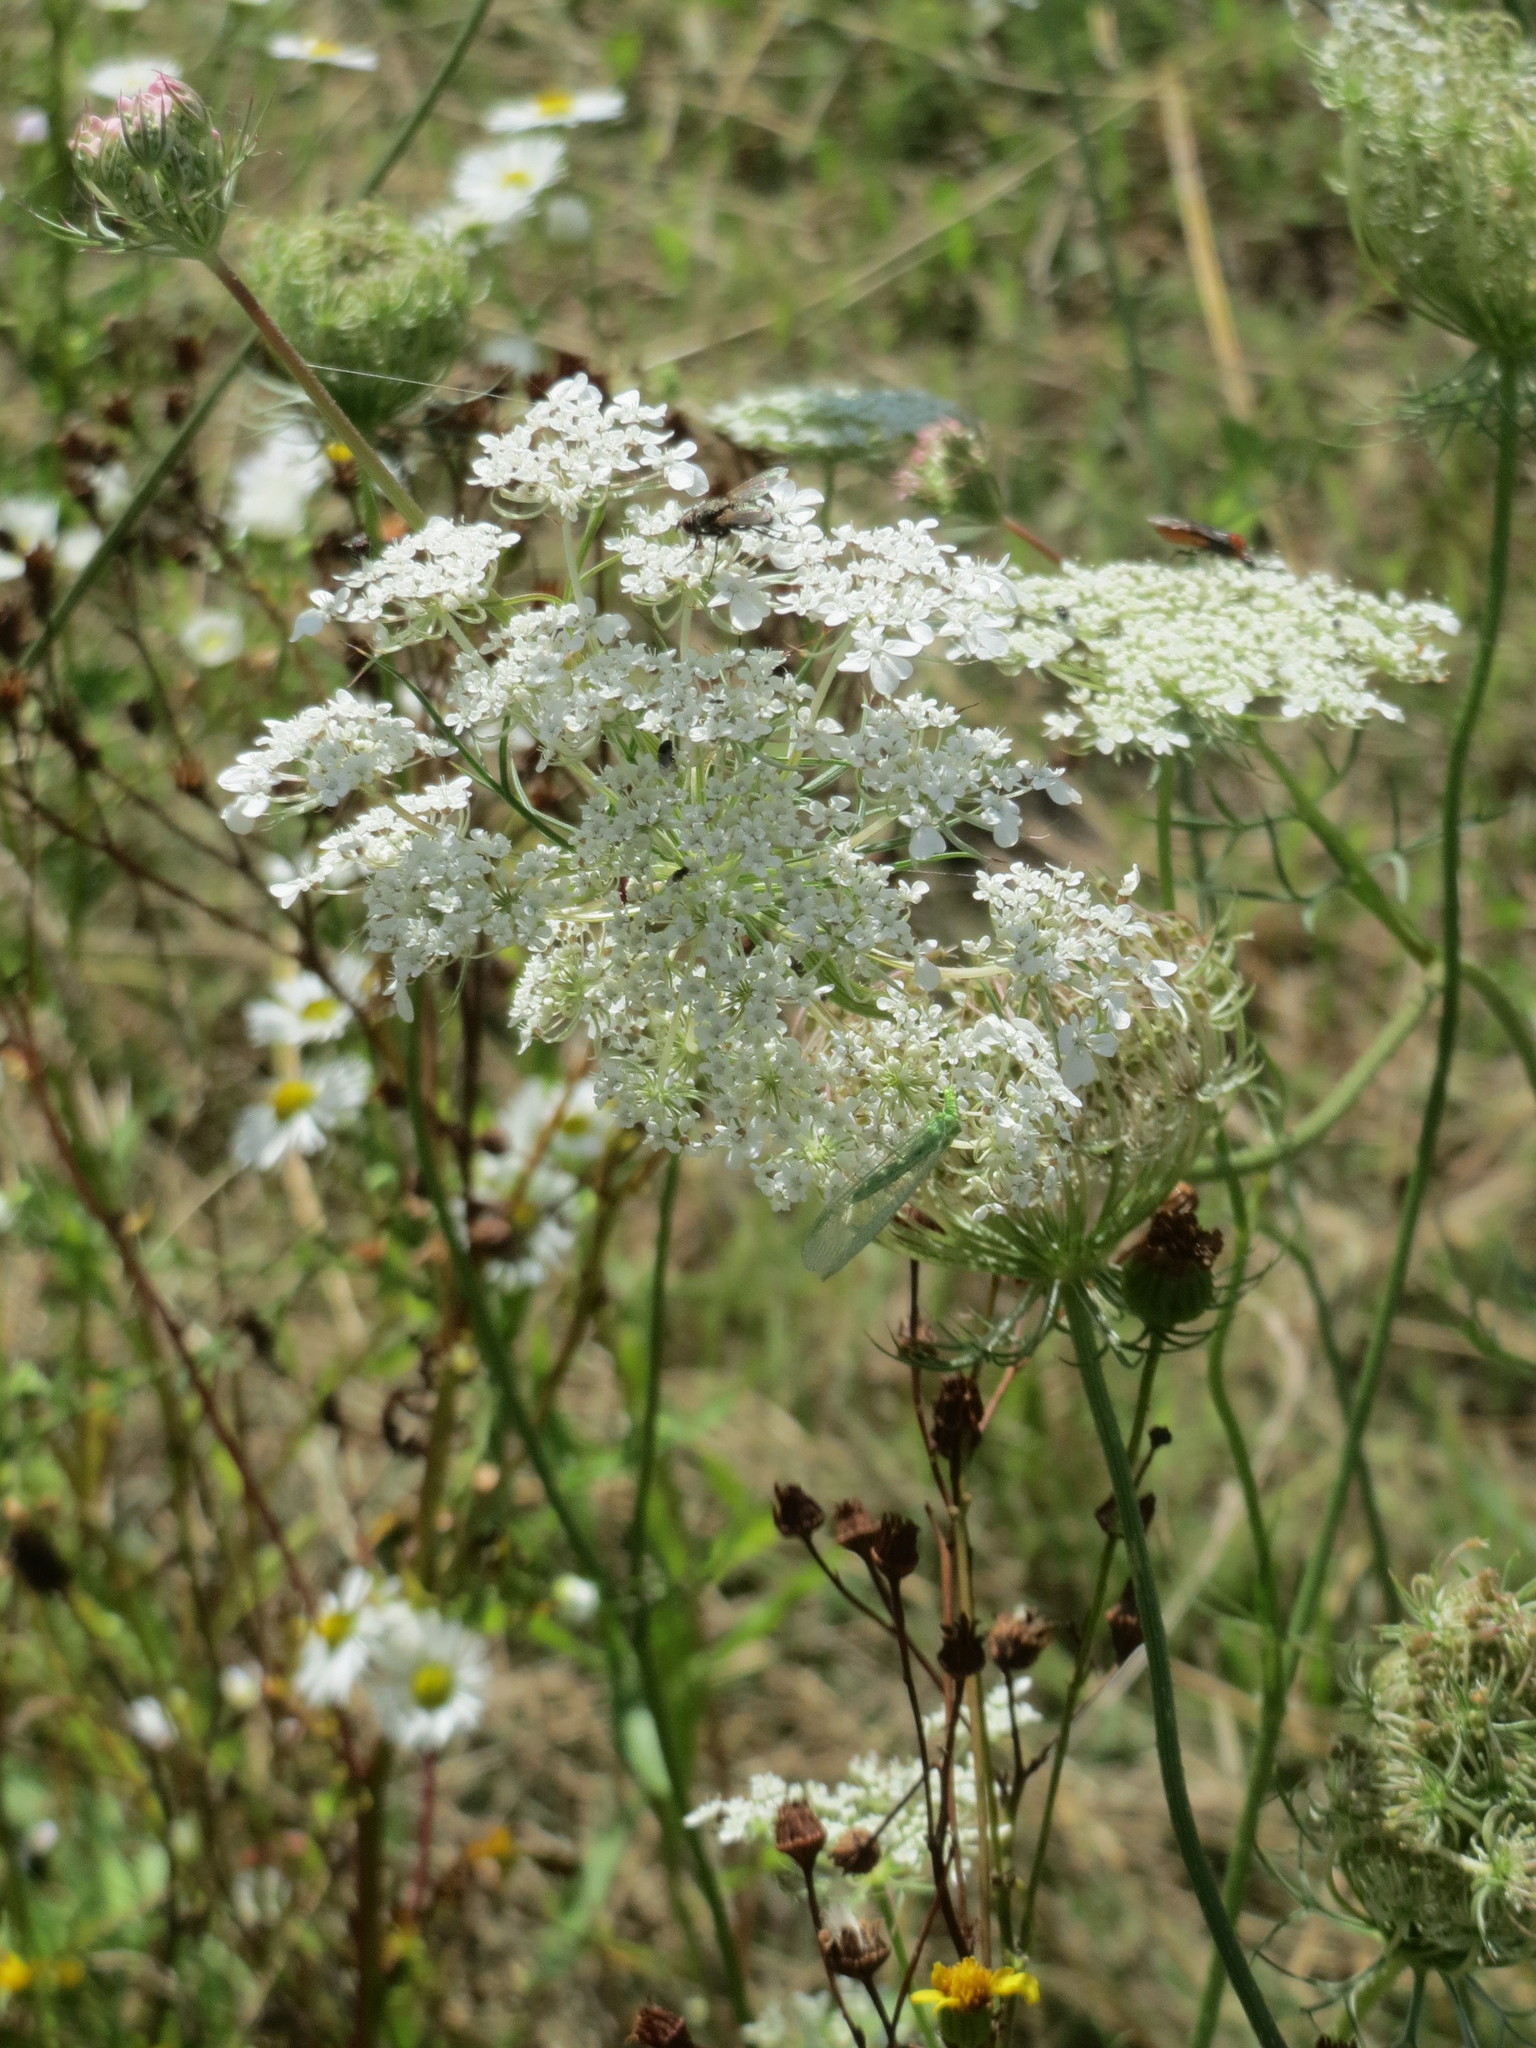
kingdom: Plantae
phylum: Tracheophyta
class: Magnoliopsida
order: Apiales
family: Apiaceae
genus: Daucus
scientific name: Daucus carota
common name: Wild carrot
